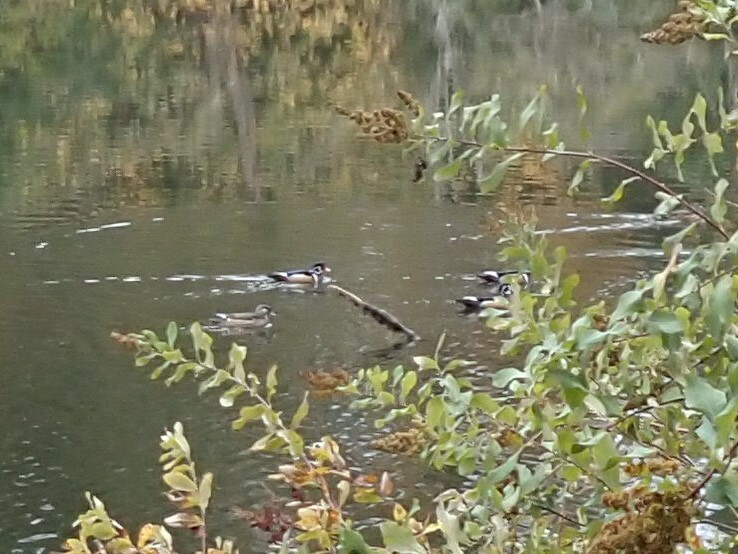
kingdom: Animalia
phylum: Chordata
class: Aves
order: Anseriformes
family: Anatidae
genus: Aix
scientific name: Aix sponsa
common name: Wood duck
